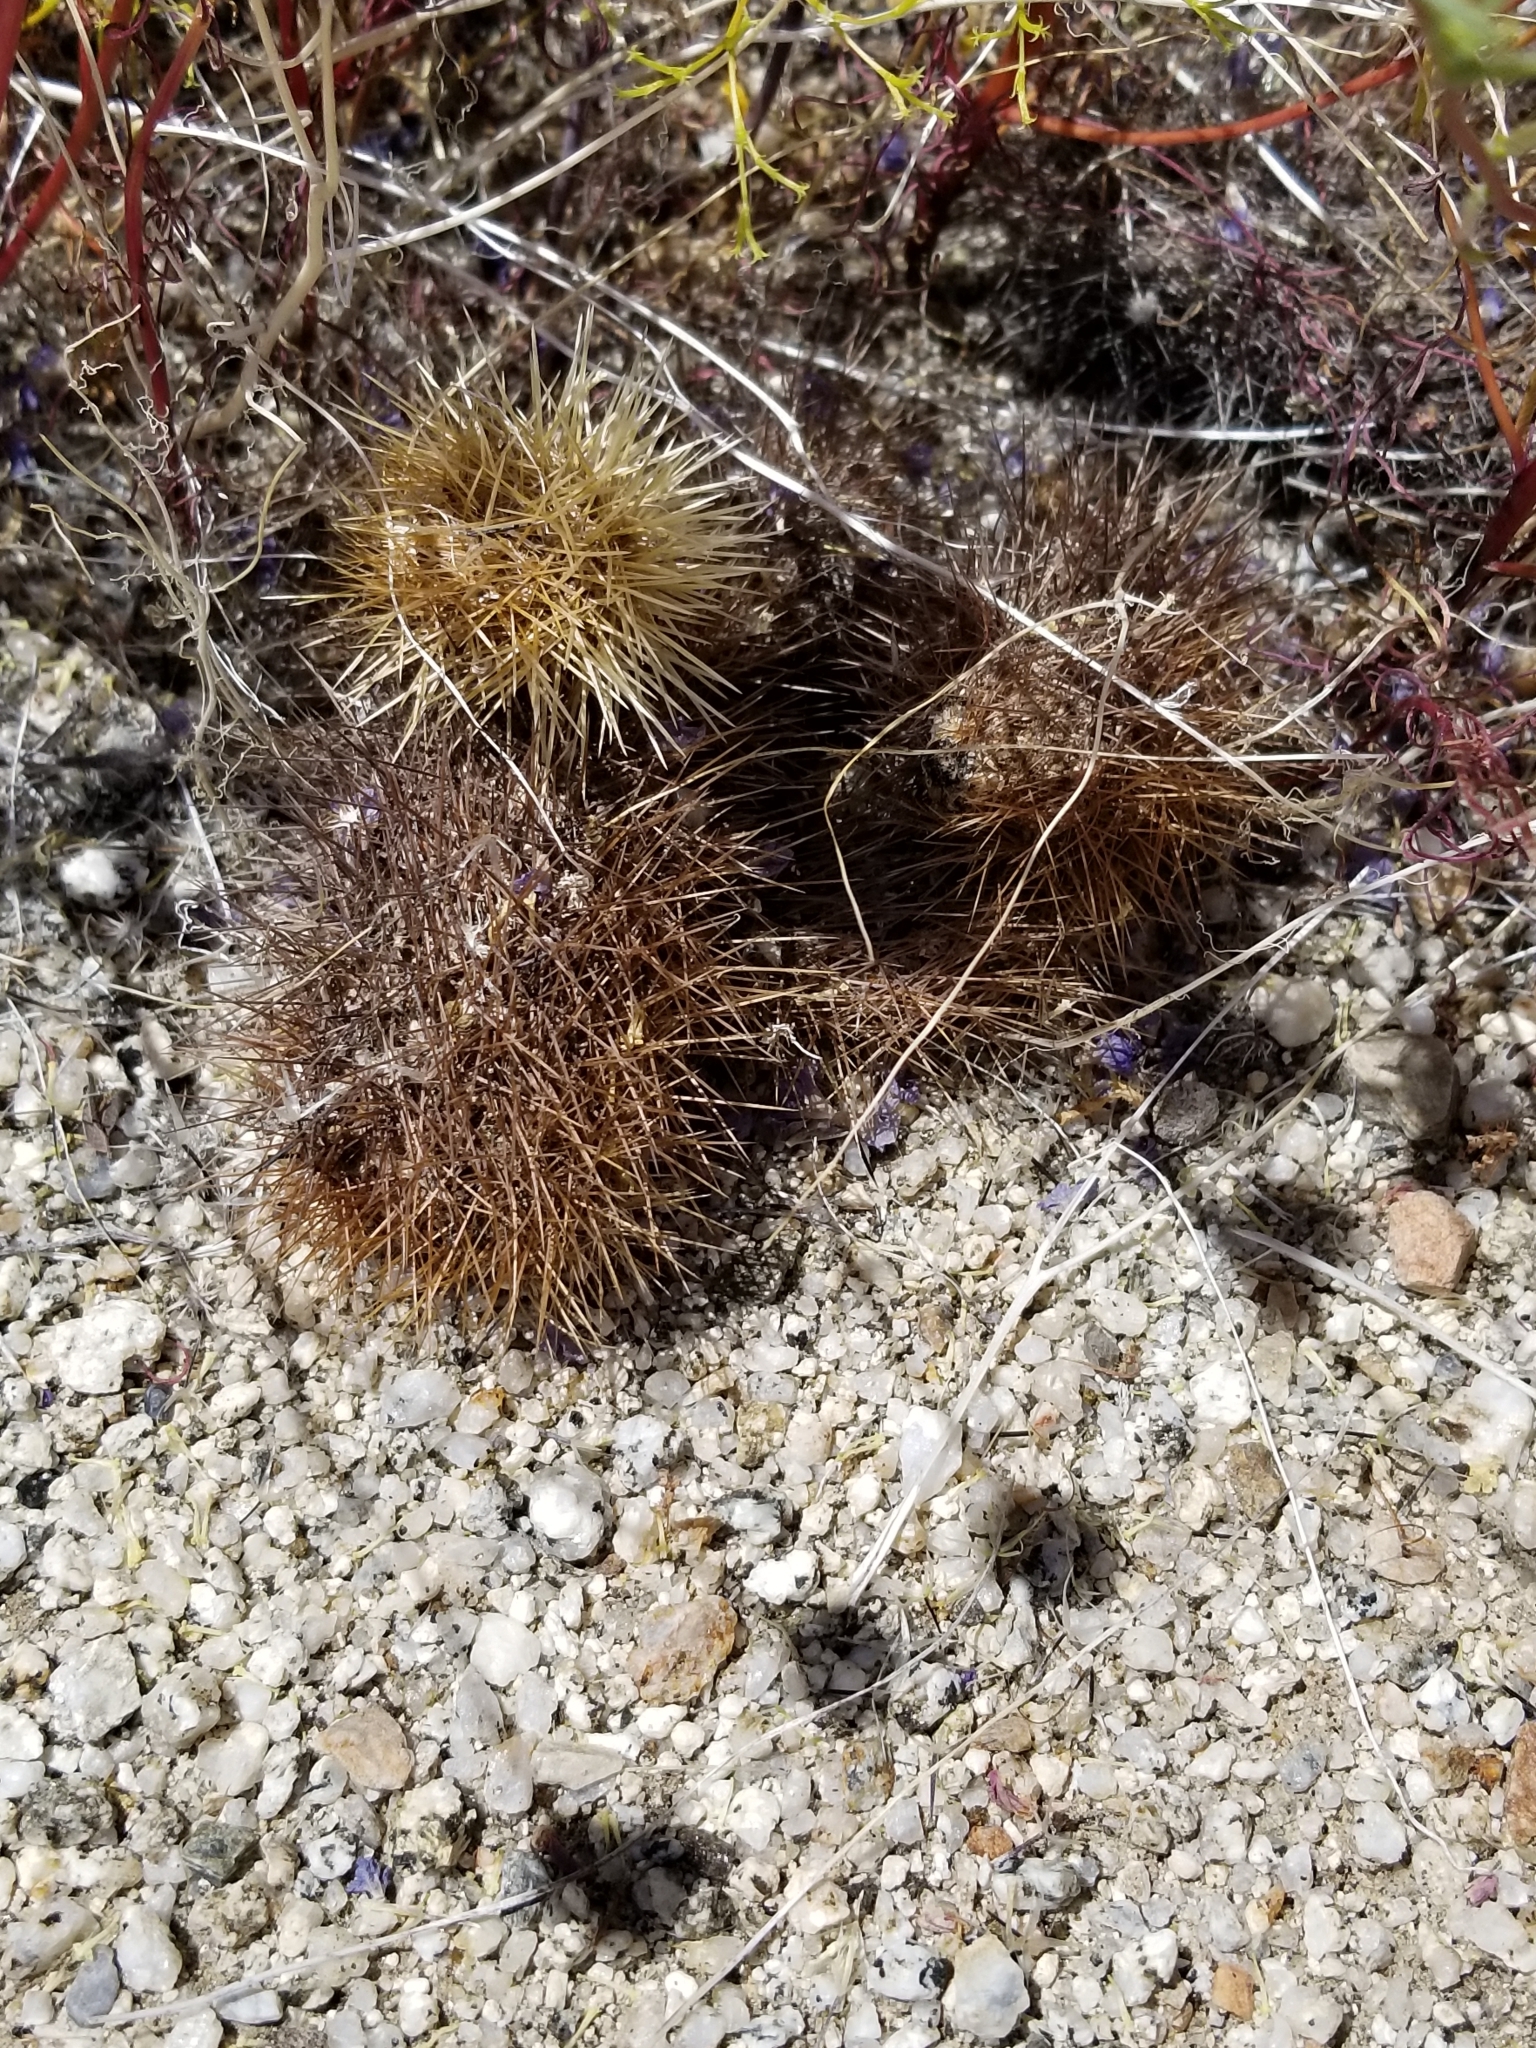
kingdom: Plantae
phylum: Tracheophyta
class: Magnoliopsida
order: Caryophyllales
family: Cactaceae
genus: Cylindropuntia
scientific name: Cylindropuntia fosbergii
